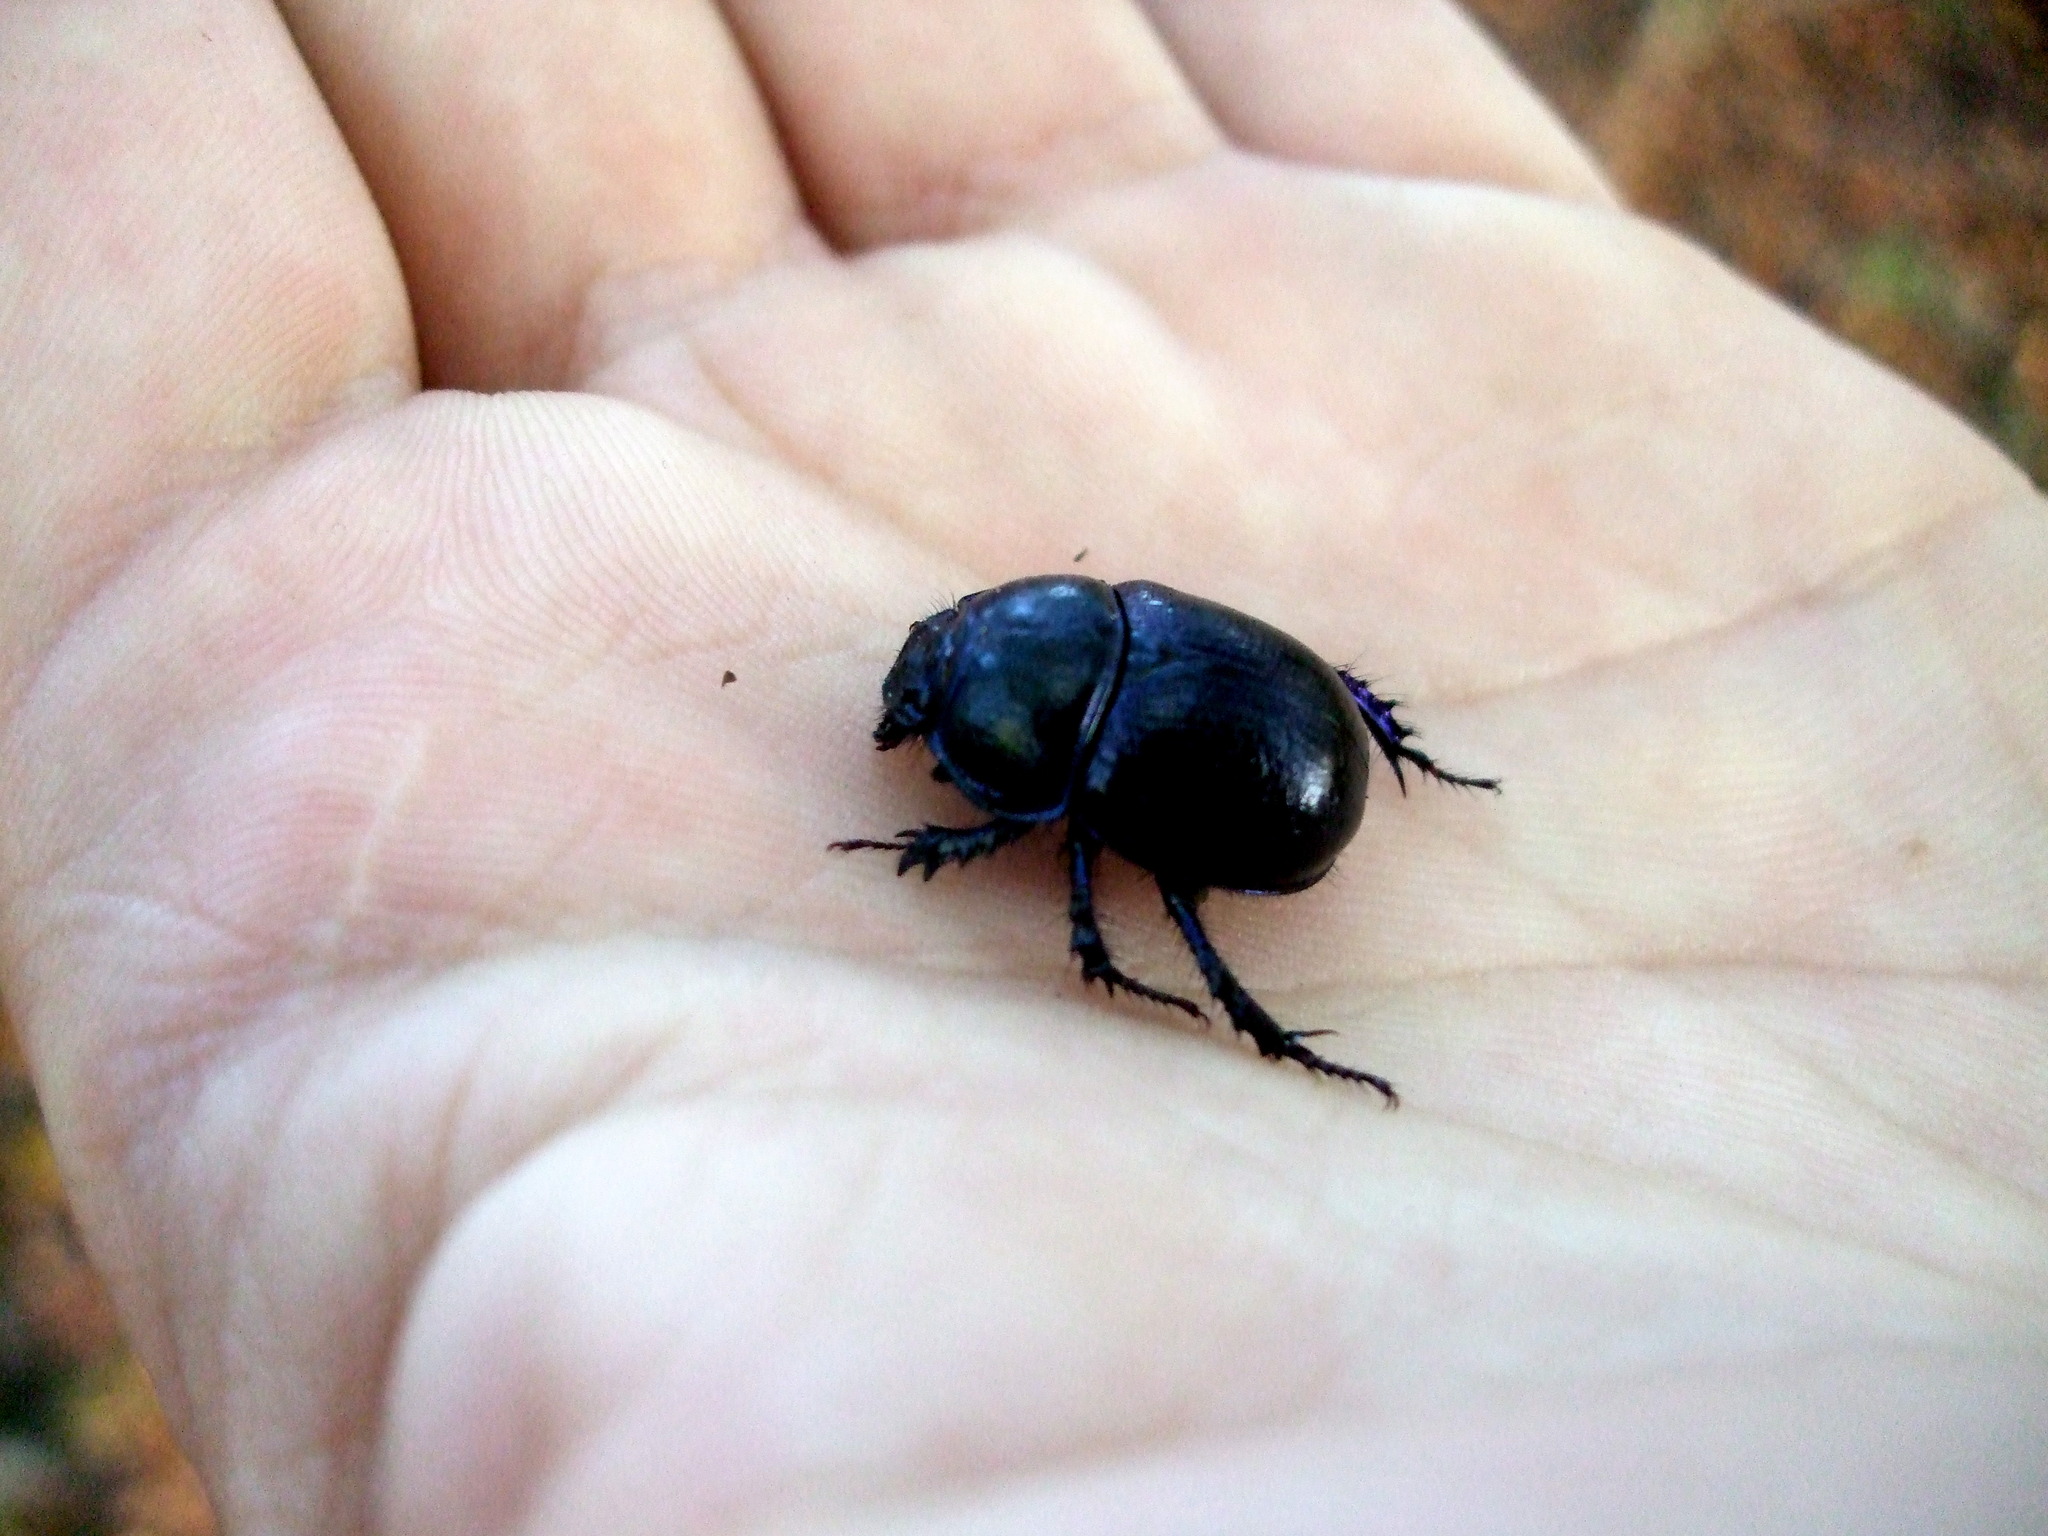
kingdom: Animalia
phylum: Arthropoda
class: Insecta
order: Coleoptera
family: Geotrupidae
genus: Anoplotrupes
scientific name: Anoplotrupes stercorosus
